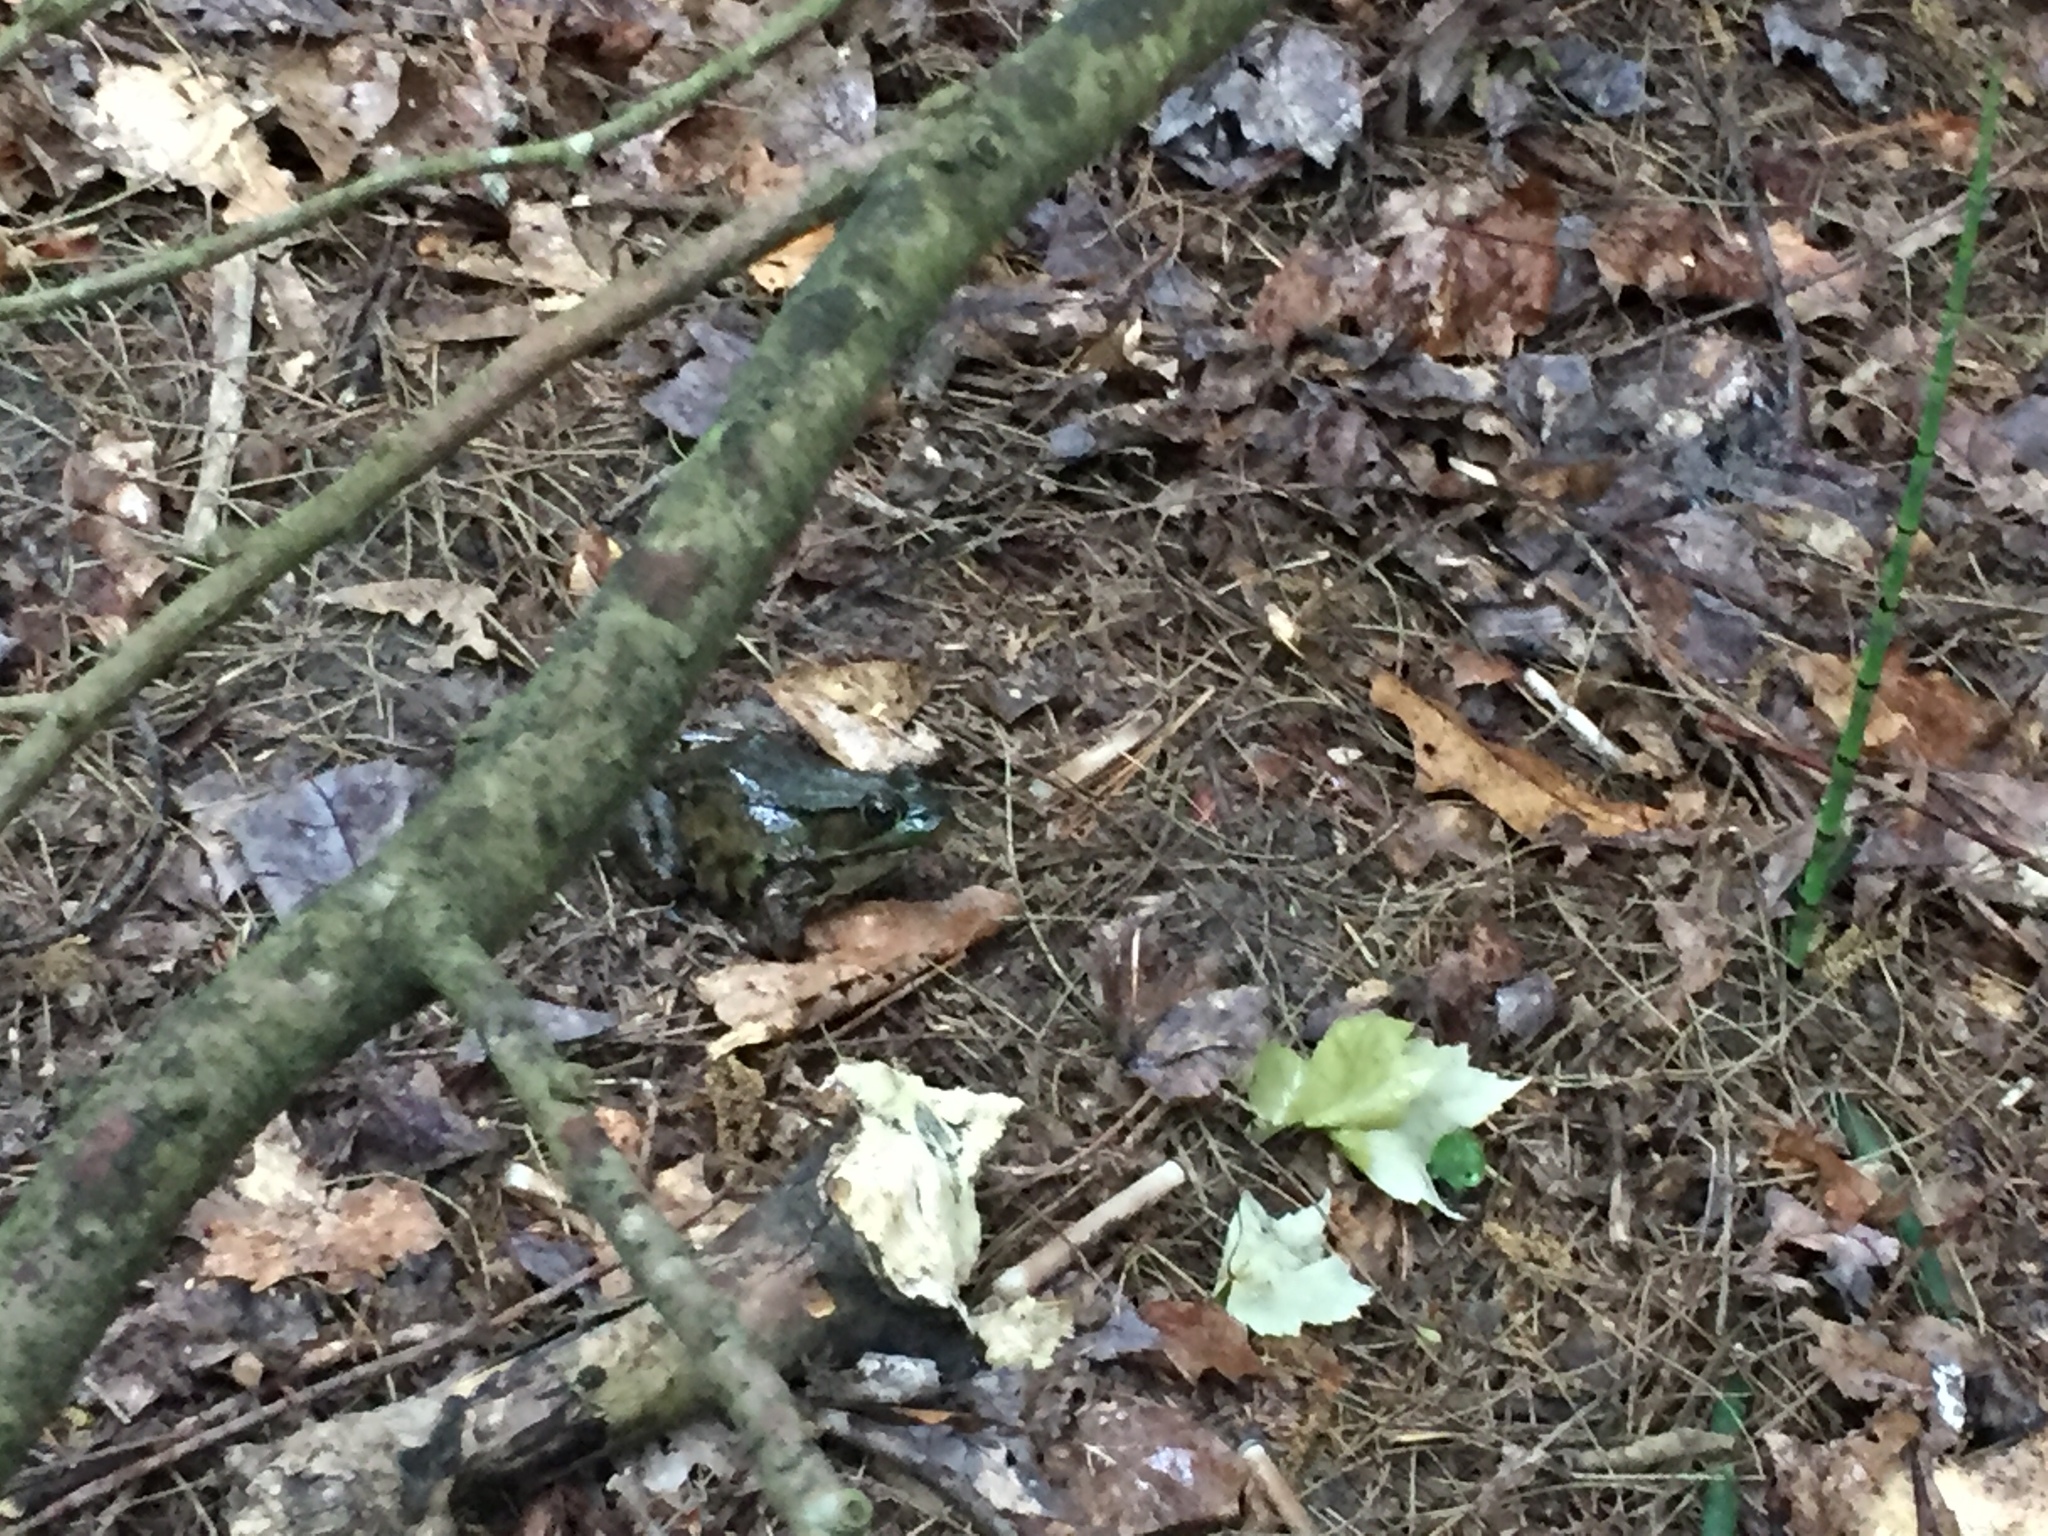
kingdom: Animalia
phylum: Chordata
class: Amphibia
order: Anura
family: Ranidae
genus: Lithobates
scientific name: Lithobates clamitans
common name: Green frog
